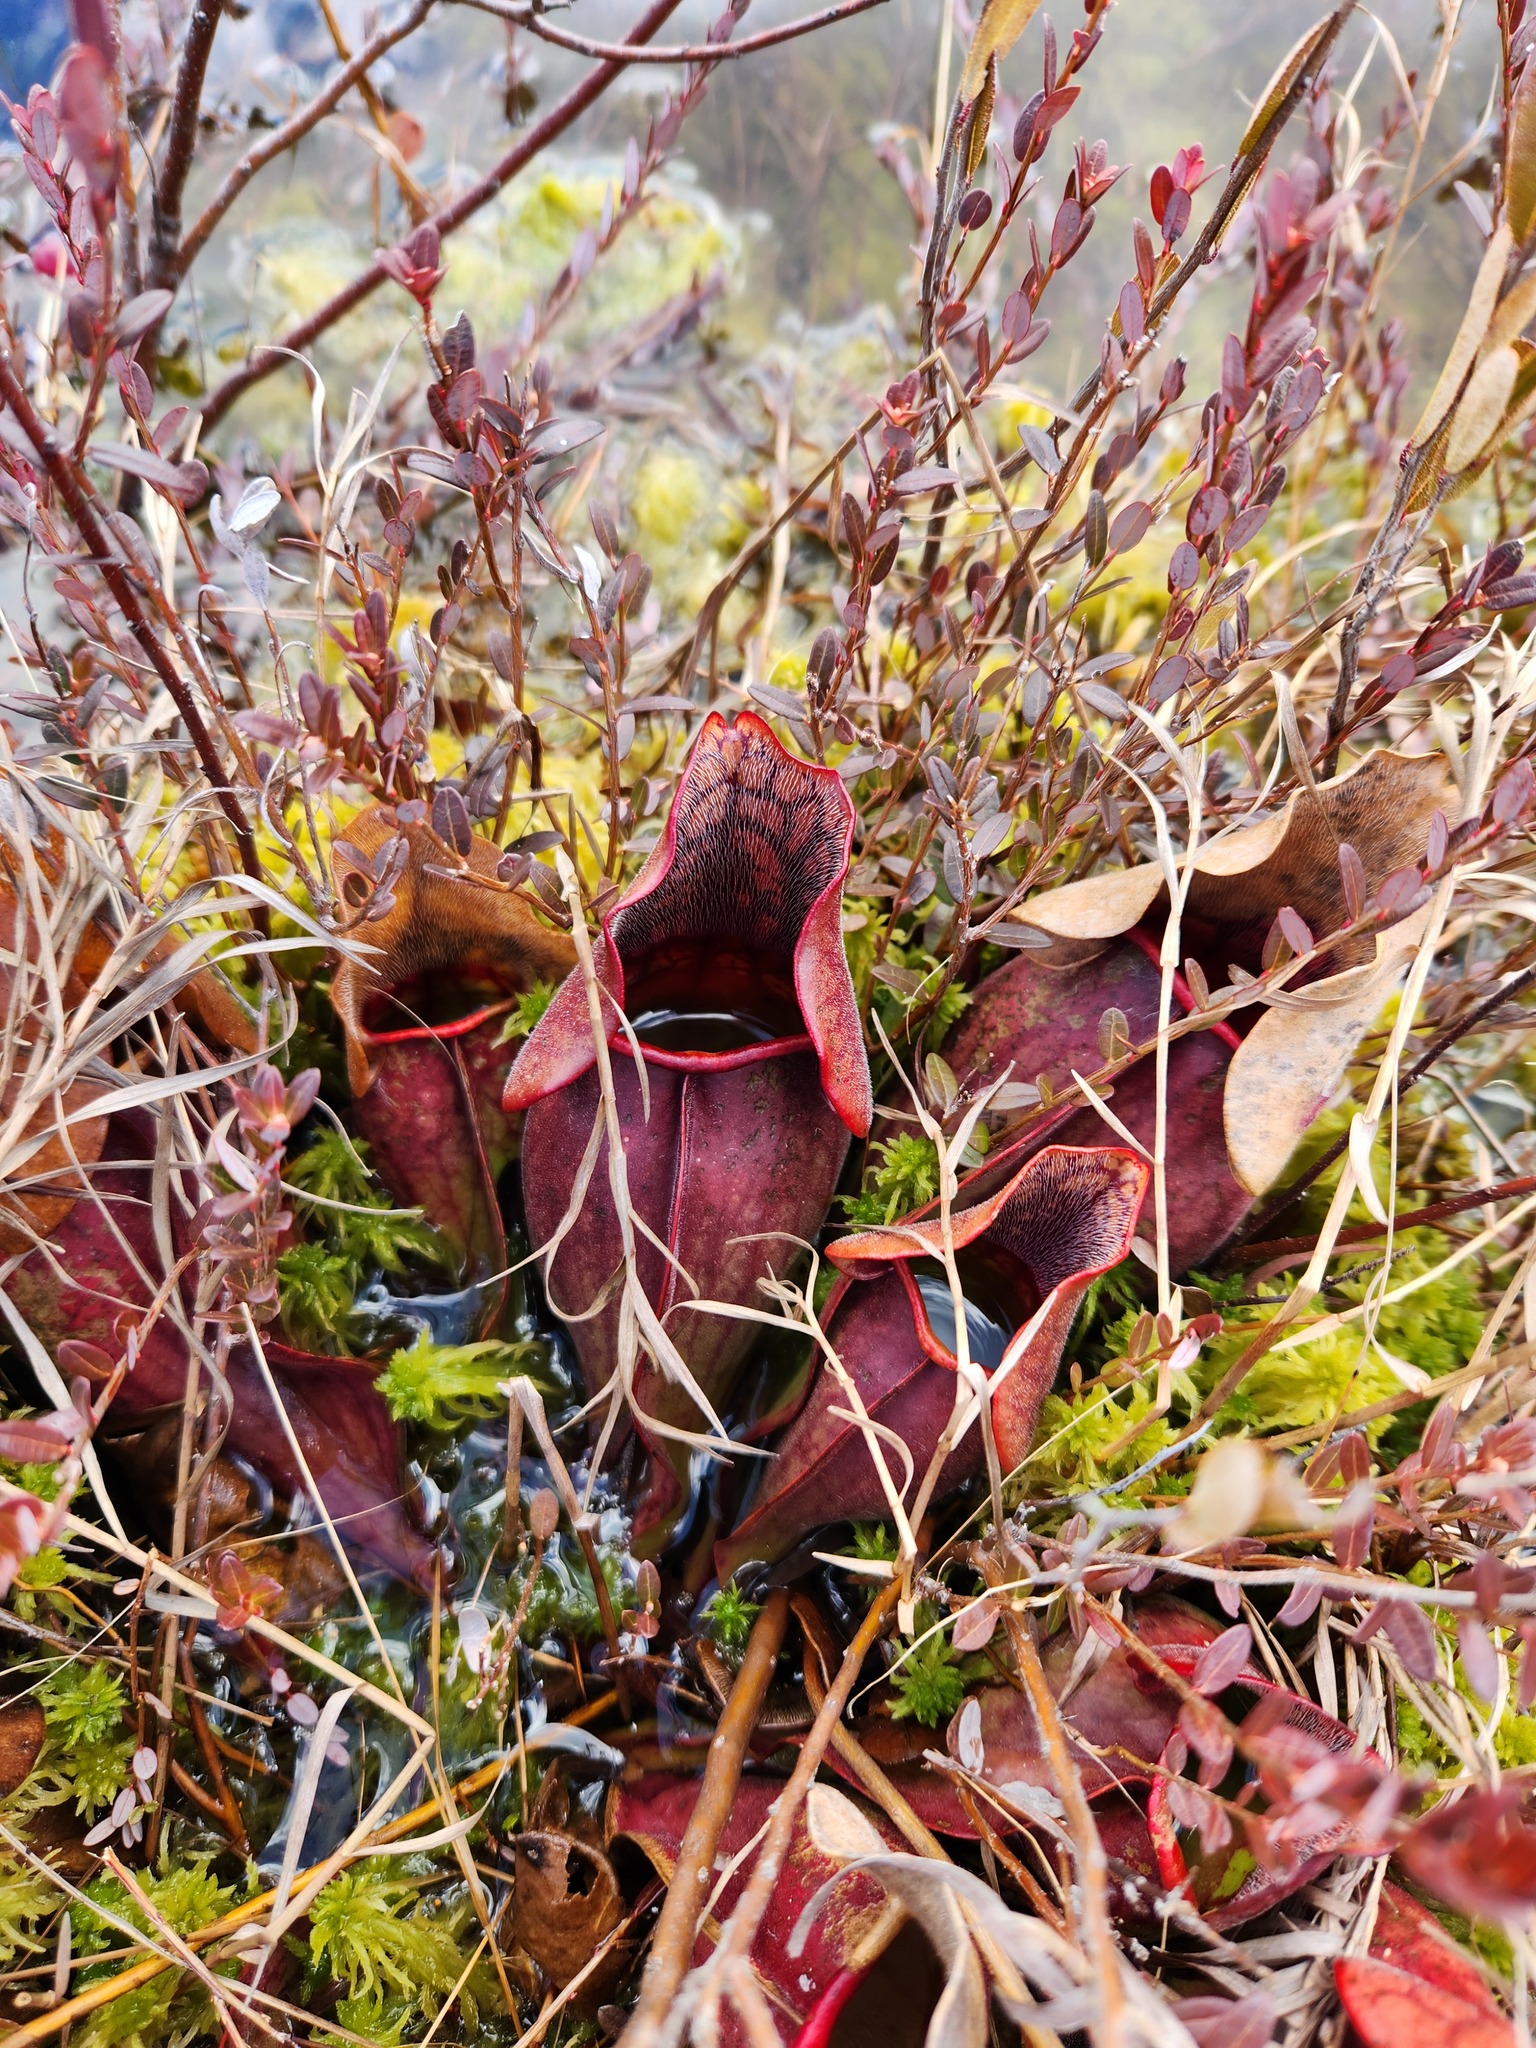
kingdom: Plantae
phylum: Tracheophyta
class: Magnoliopsida
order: Ericales
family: Sarraceniaceae
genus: Sarracenia
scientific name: Sarracenia purpurea
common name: Pitcherplant
